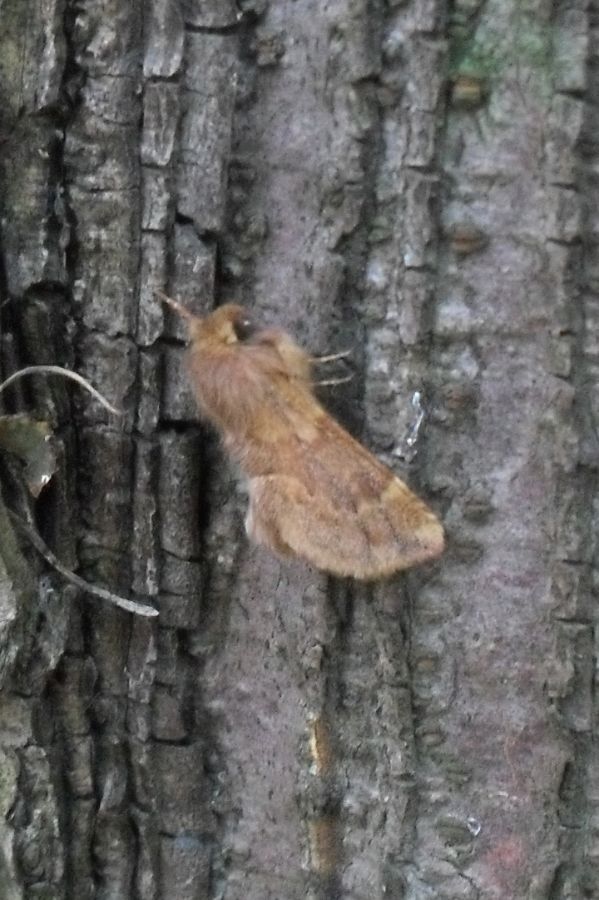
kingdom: Animalia
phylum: Arthropoda
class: Insecta
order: Lepidoptera
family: Notodontidae
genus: Ptilophora
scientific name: Ptilophora plumigera
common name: Plumed prominent
